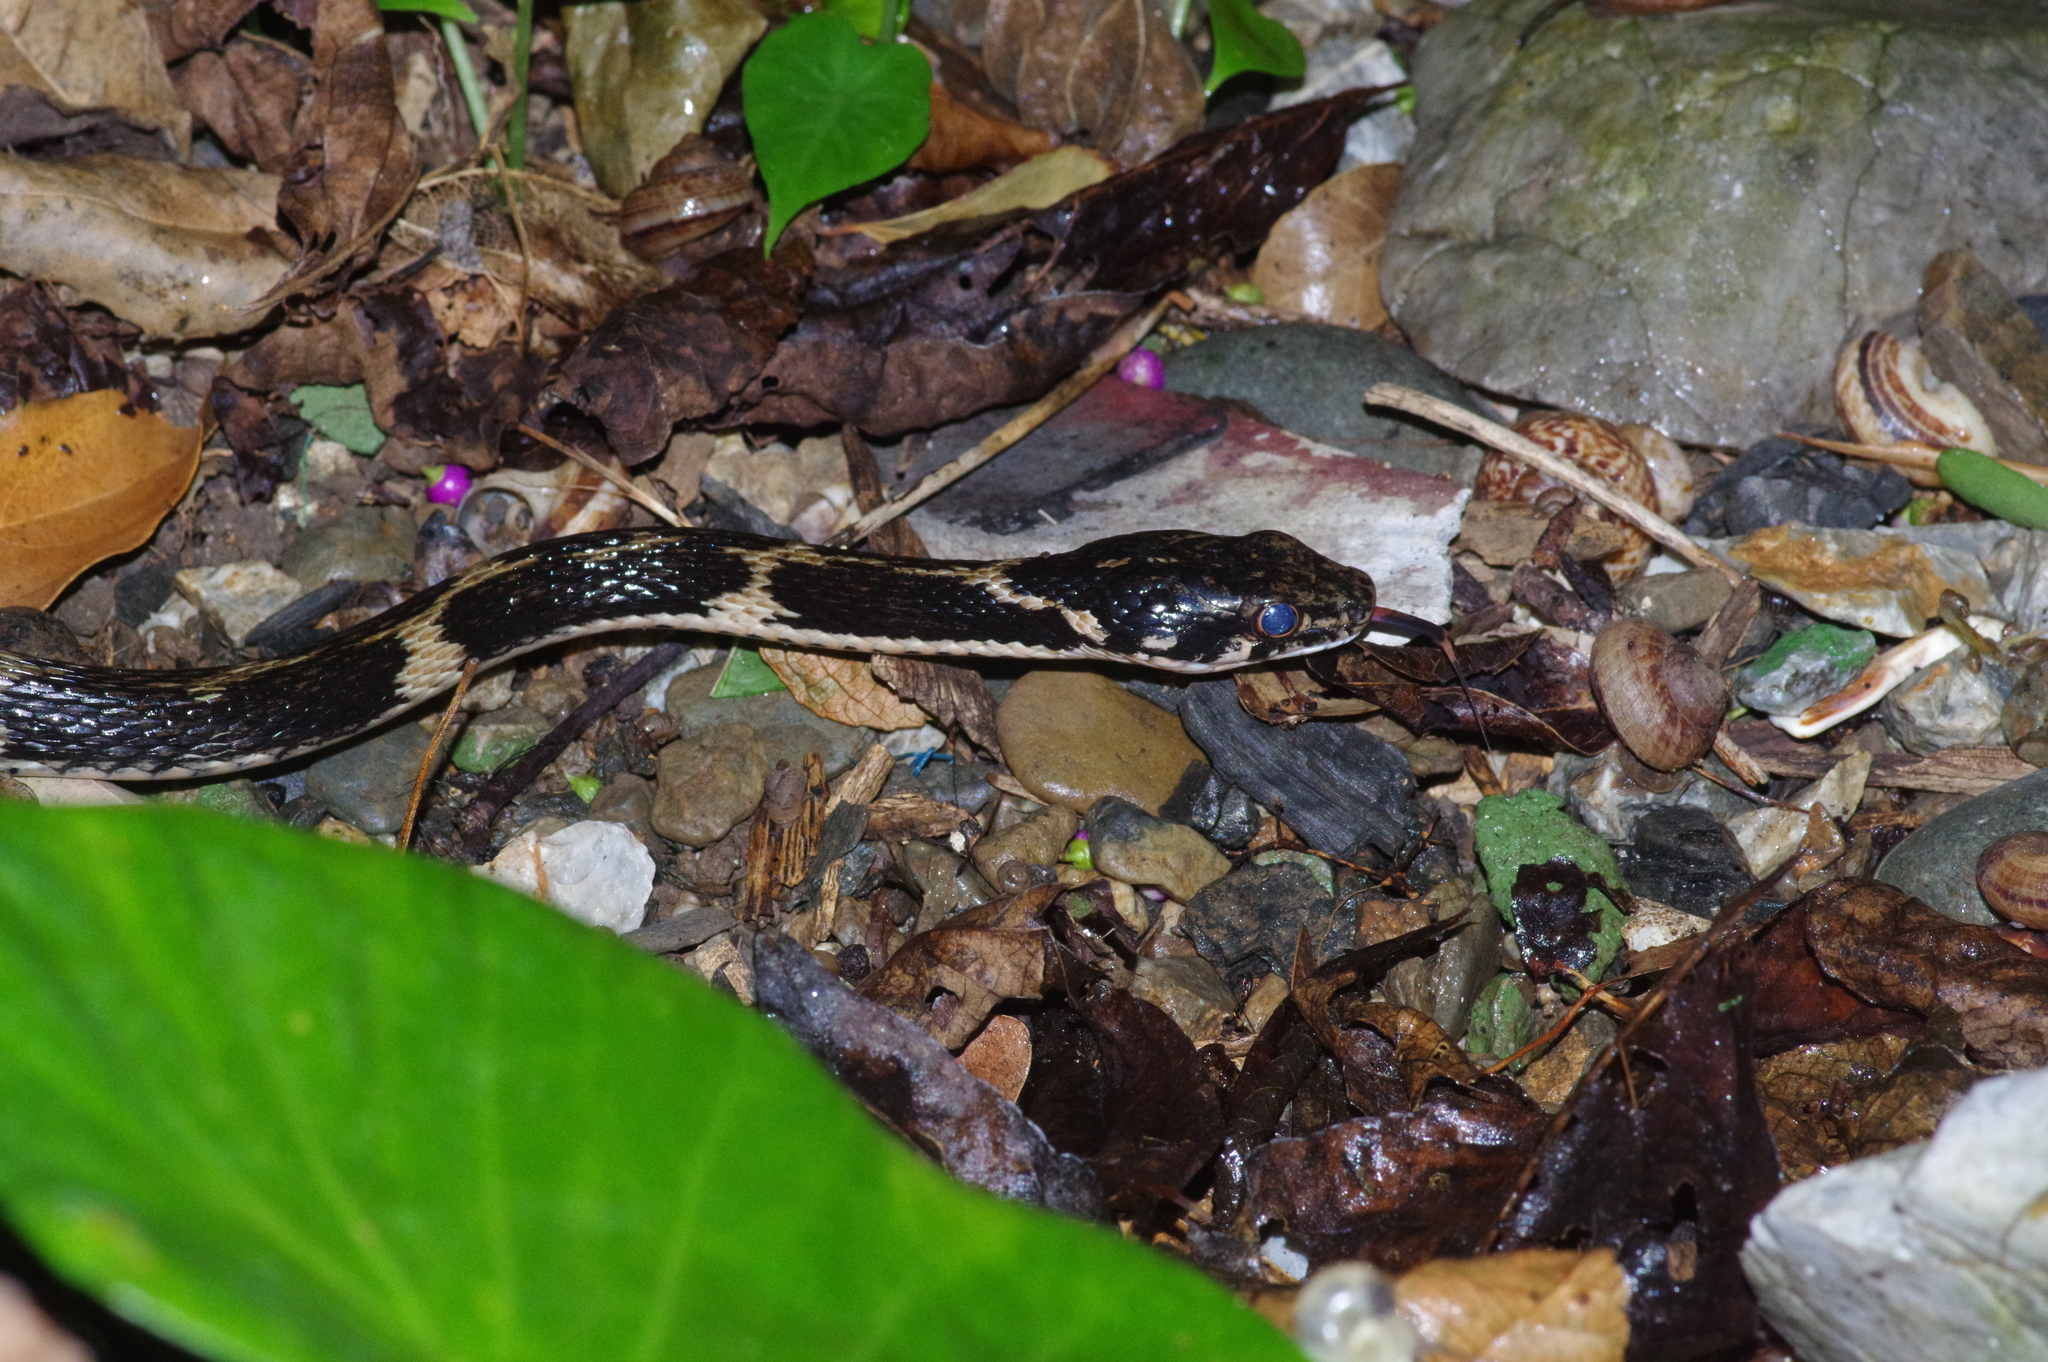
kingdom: Animalia
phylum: Chordata
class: Squamata
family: Colubridae
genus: Hebius
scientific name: Hebius pryeri
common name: Pryer's keelback
